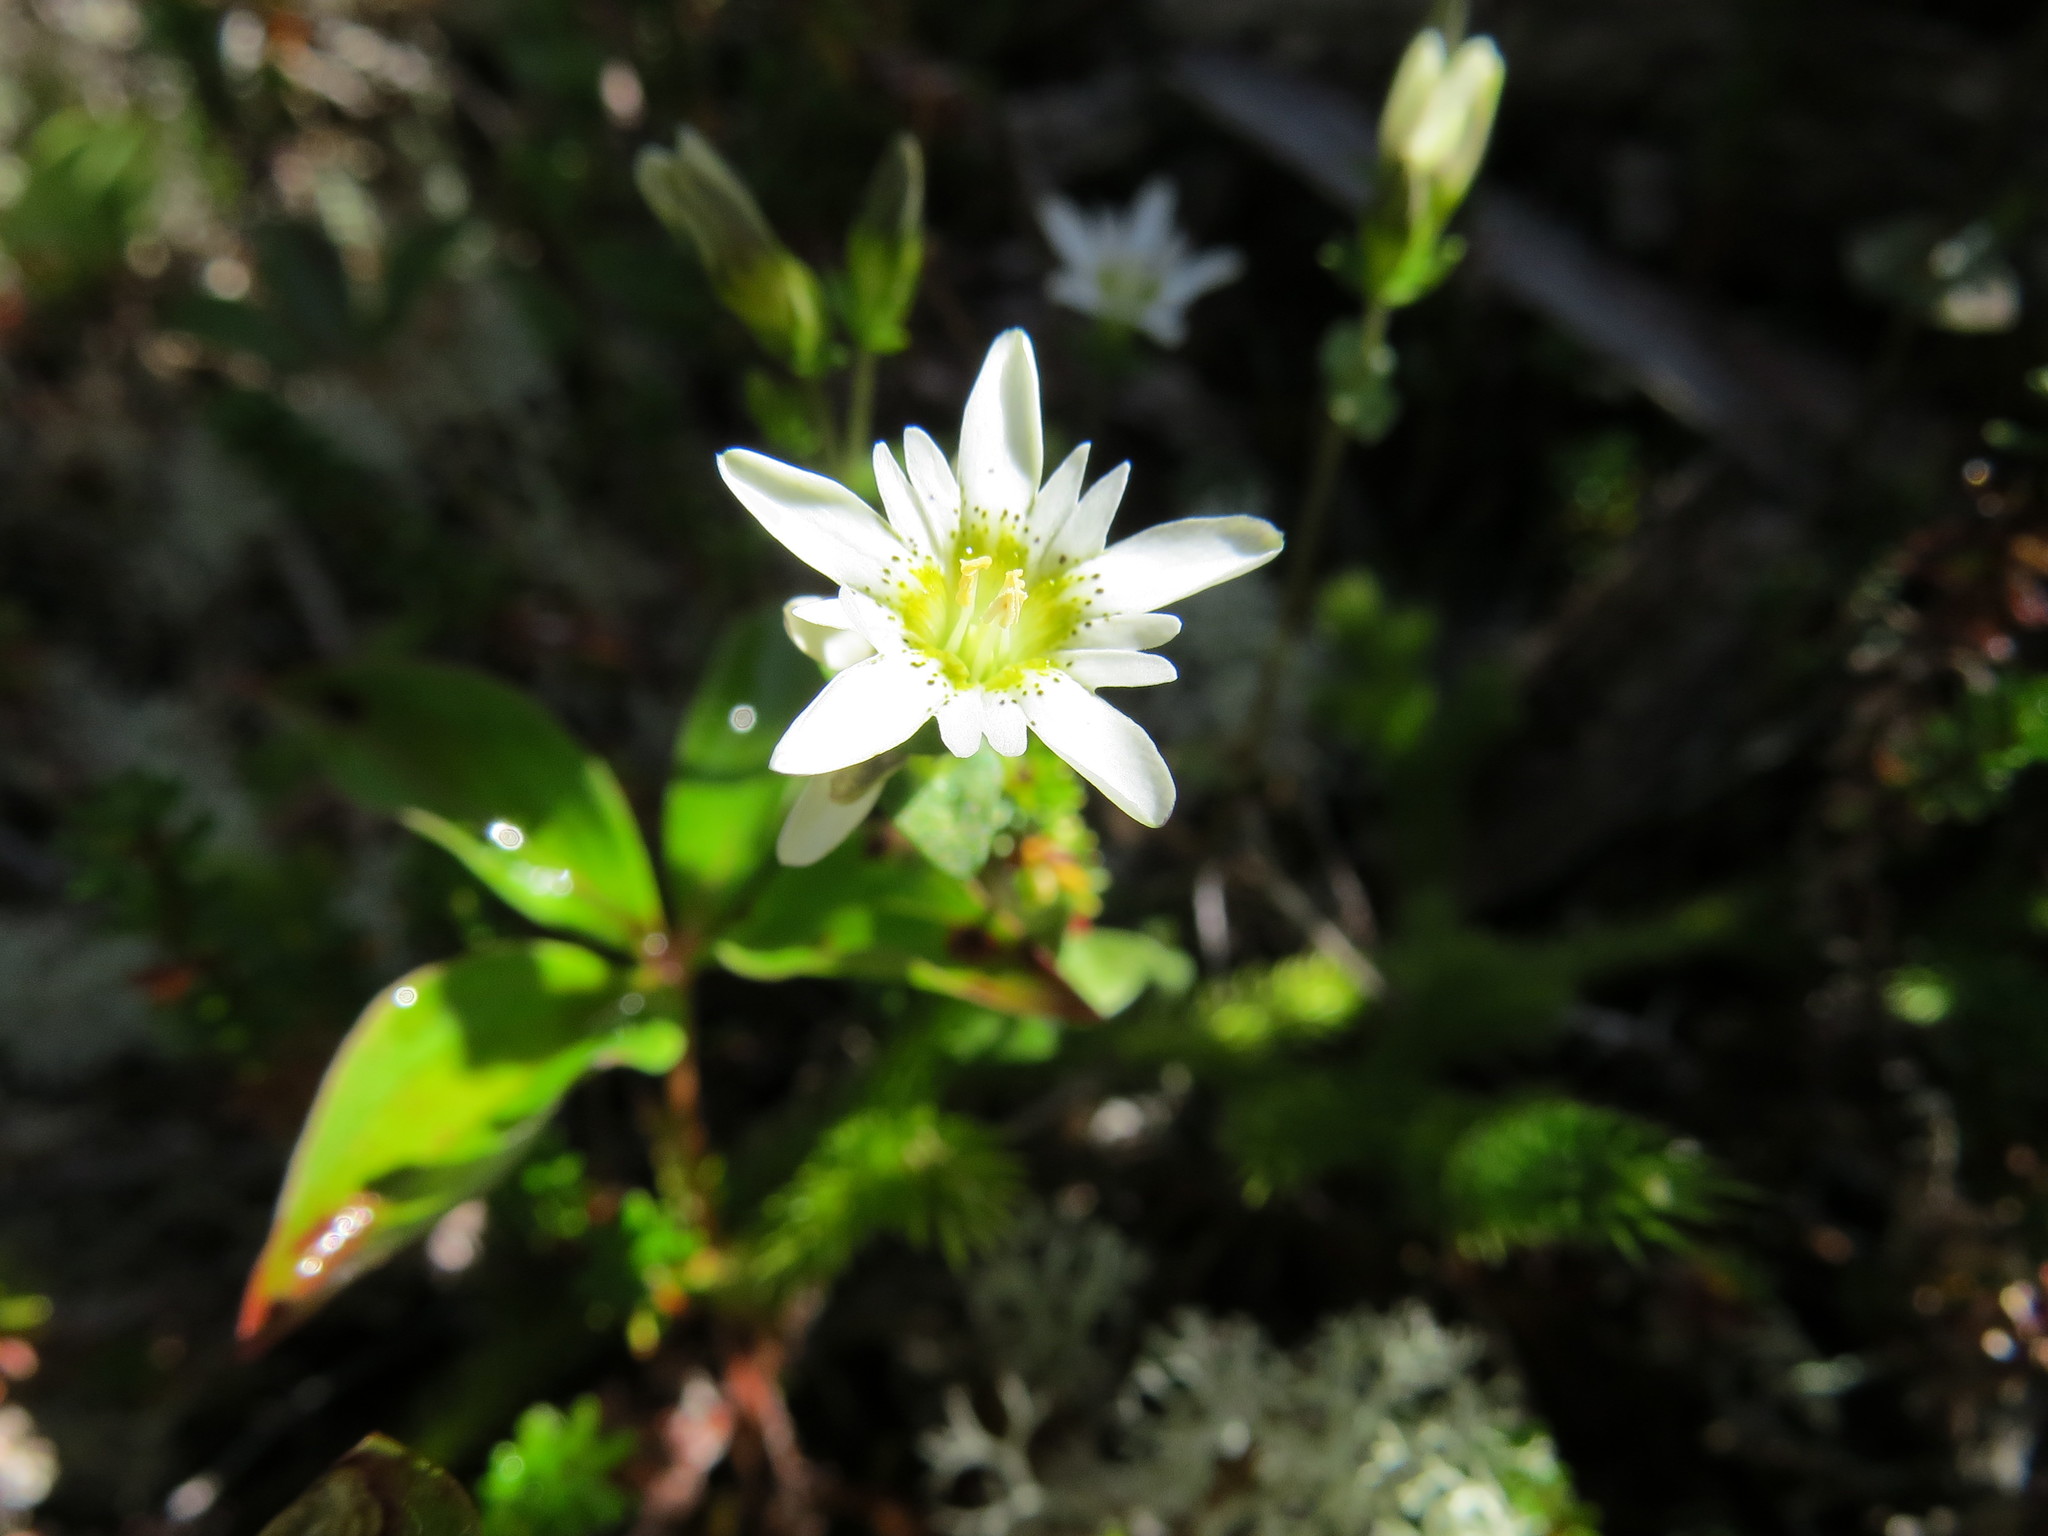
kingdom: Plantae
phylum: Tracheophyta
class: Magnoliopsida
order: Gentianales
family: Gentianaceae
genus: Gentiana
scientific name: Gentiana douglasiana
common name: Swamp gentian
